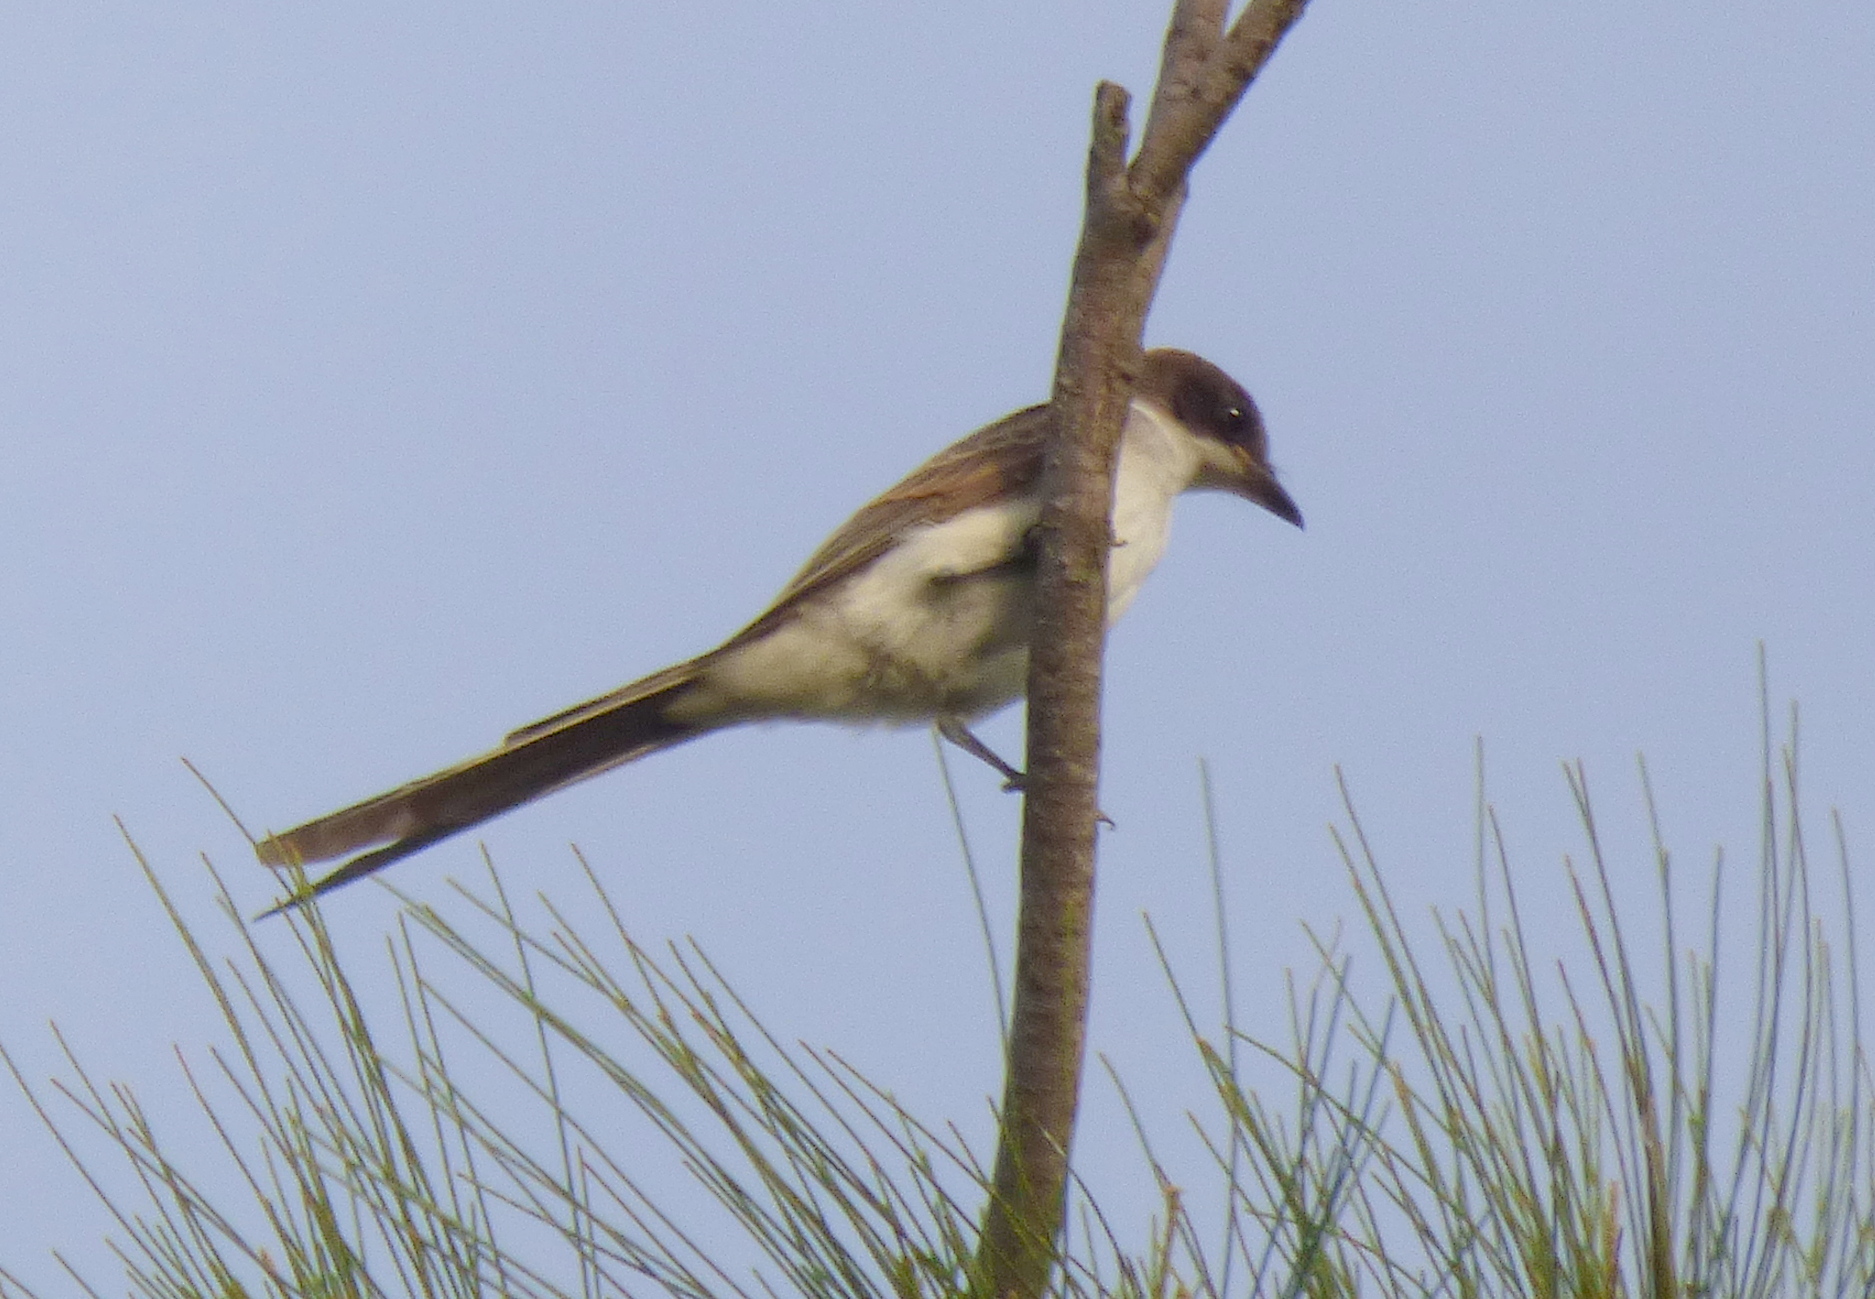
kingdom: Animalia
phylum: Chordata
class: Aves
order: Passeriformes
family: Tyrannidae
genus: Tyrannus
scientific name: Tyrannus savana
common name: Fork-tailed flycatcher
